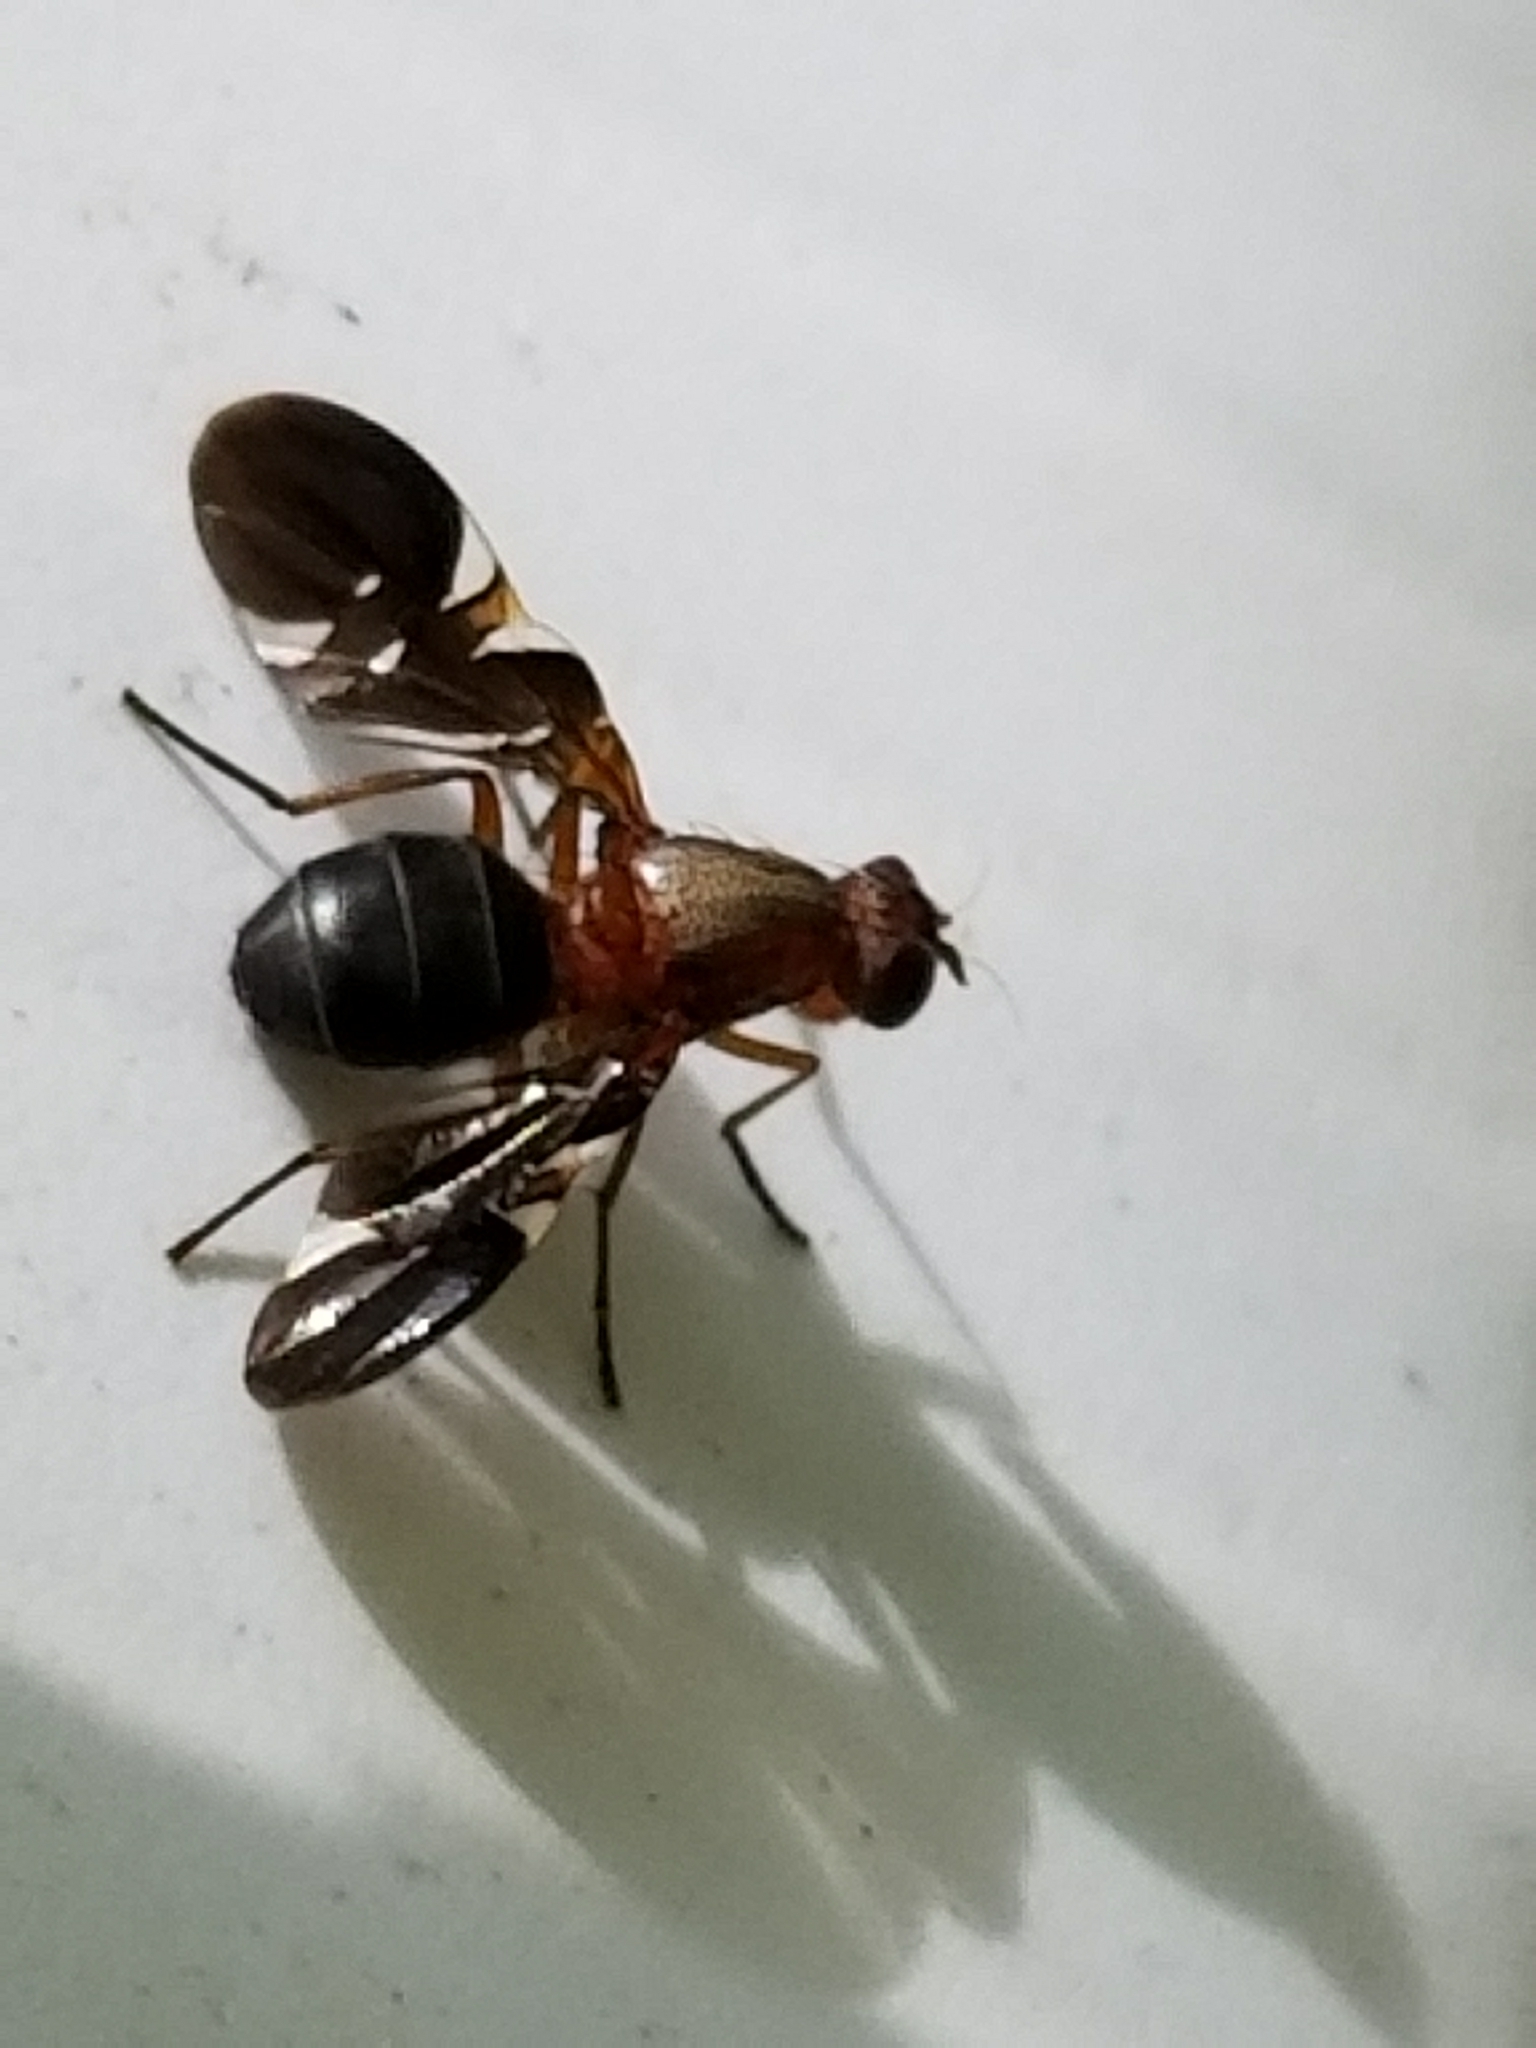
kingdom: Animalia
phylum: Arthropoda
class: Insecta
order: Diptera
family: Ulidiidae
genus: Delphinia
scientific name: Delphinia picta
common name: Common picture-winged fly
